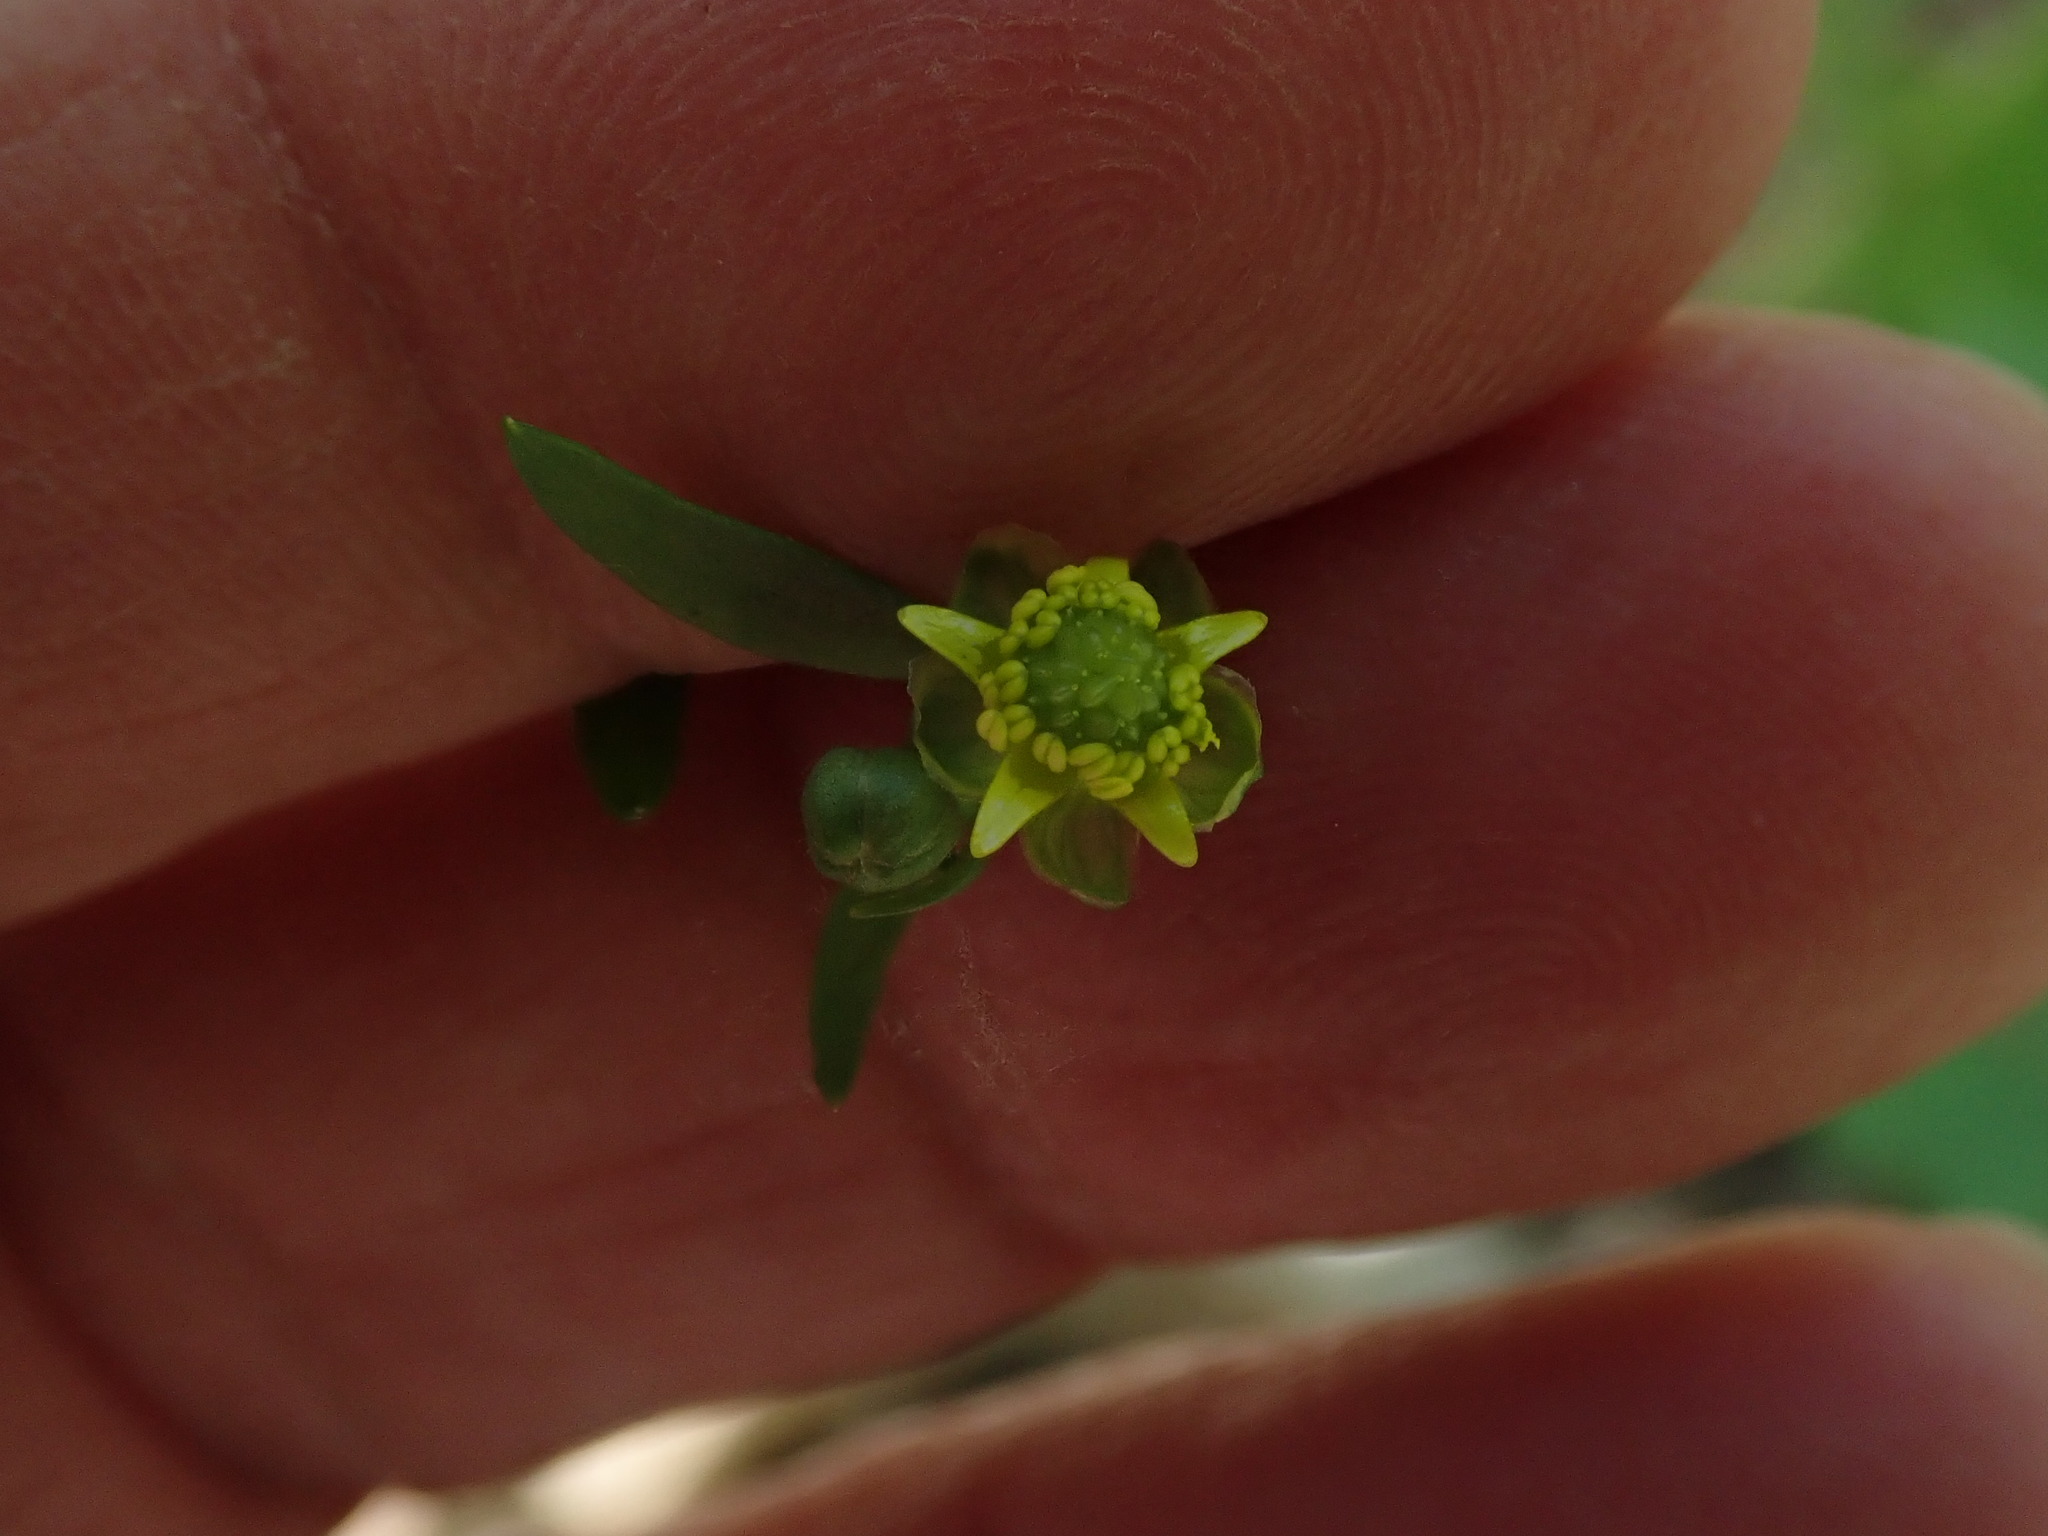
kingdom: Plantae
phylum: Tracheophyta
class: Magnoliopsida
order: Ranunculales
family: Ranunculaceae
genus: Ranunculus
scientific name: Ranunculus abortivus
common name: Early wood buttercup
